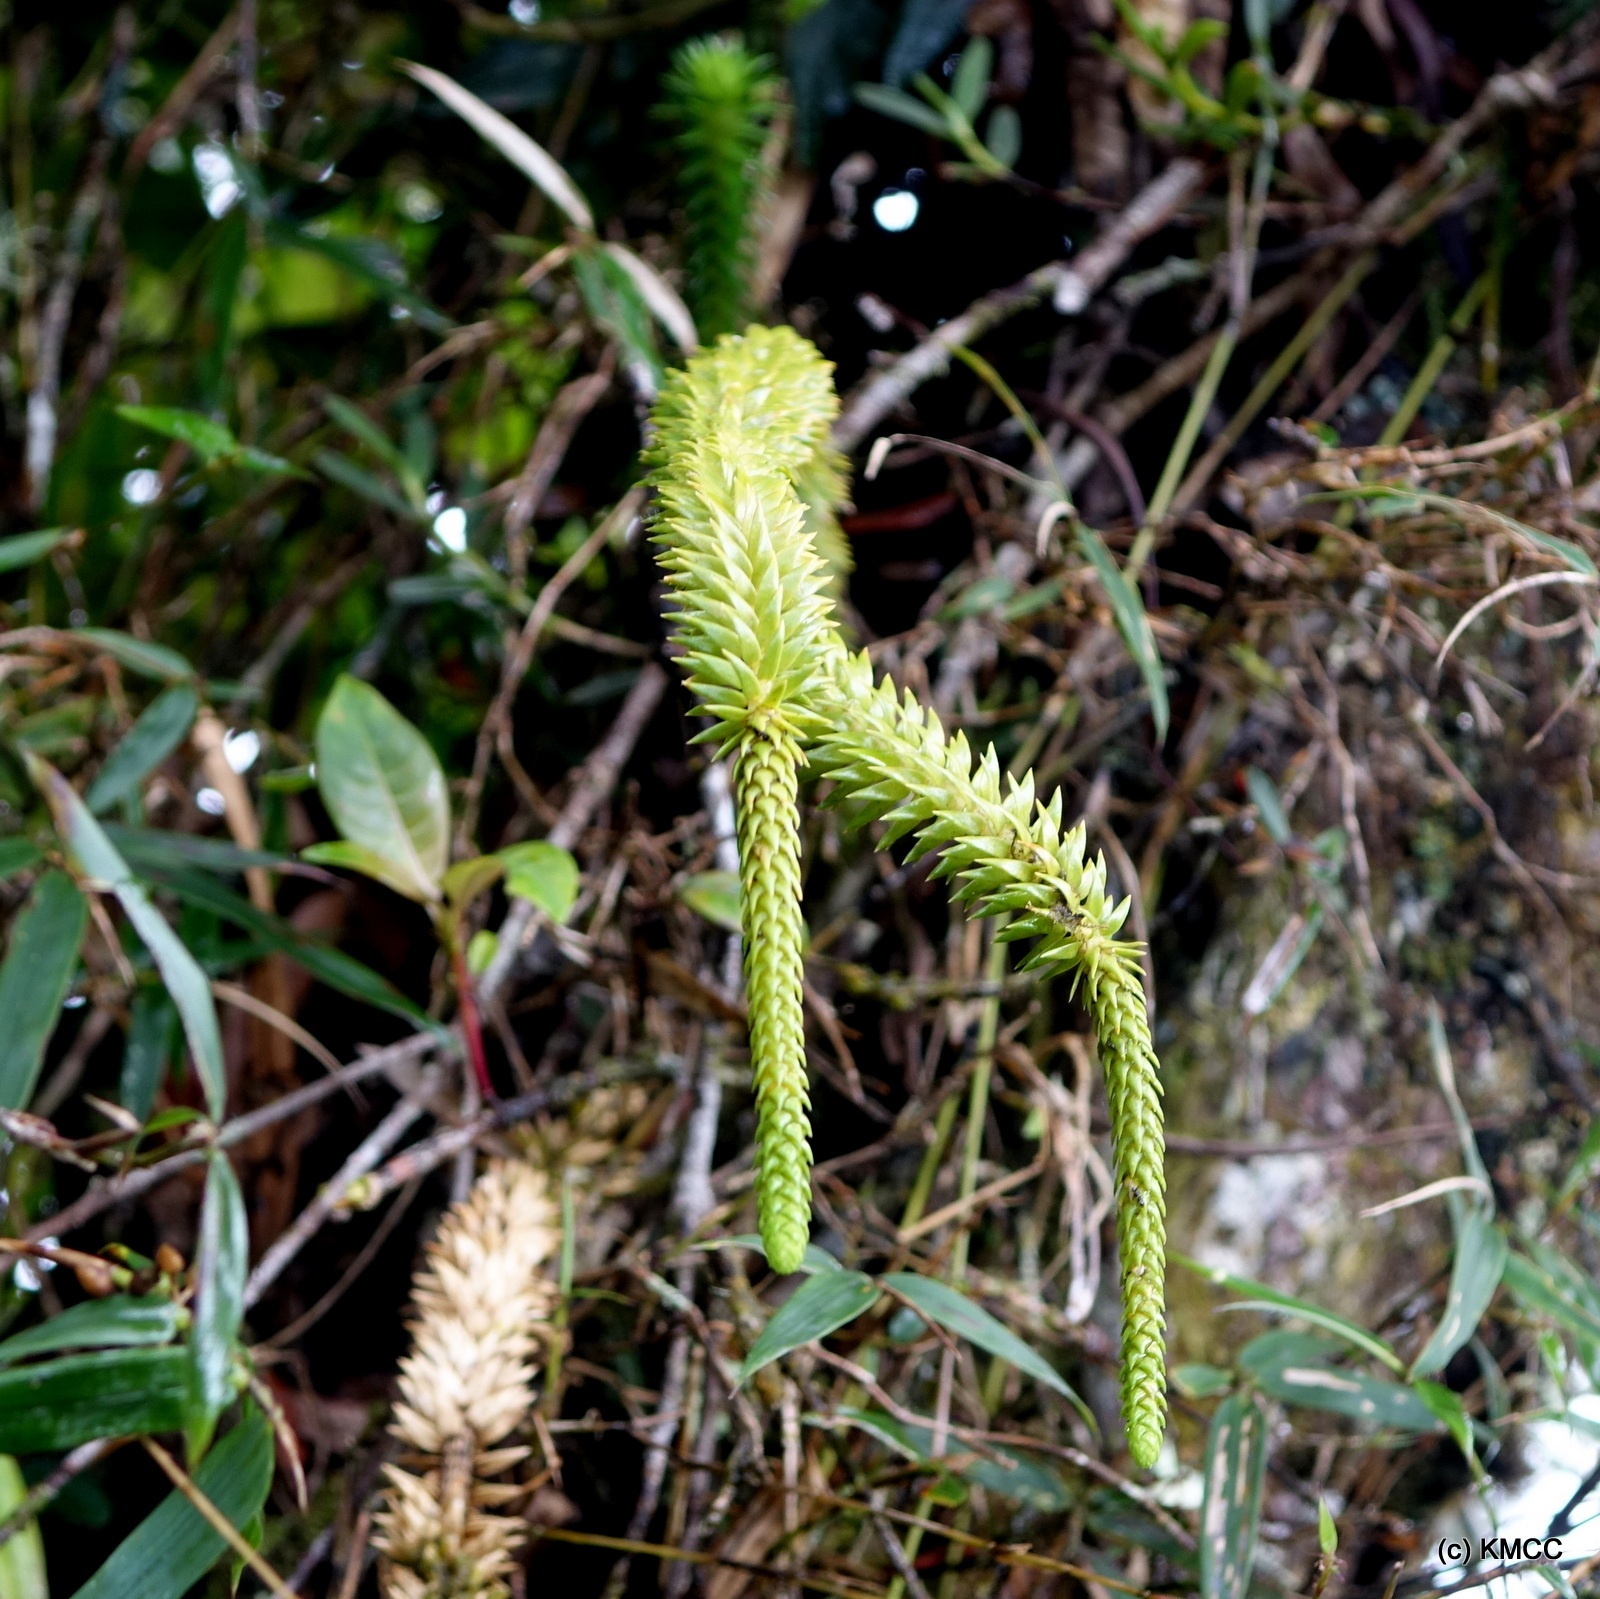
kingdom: Plantae
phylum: Tracheophyta
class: Lycopodiopsida
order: Lycopodiales
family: Lycopodiaceae
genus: Phlegmariurus
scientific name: Phlegmariurus megastachyus
